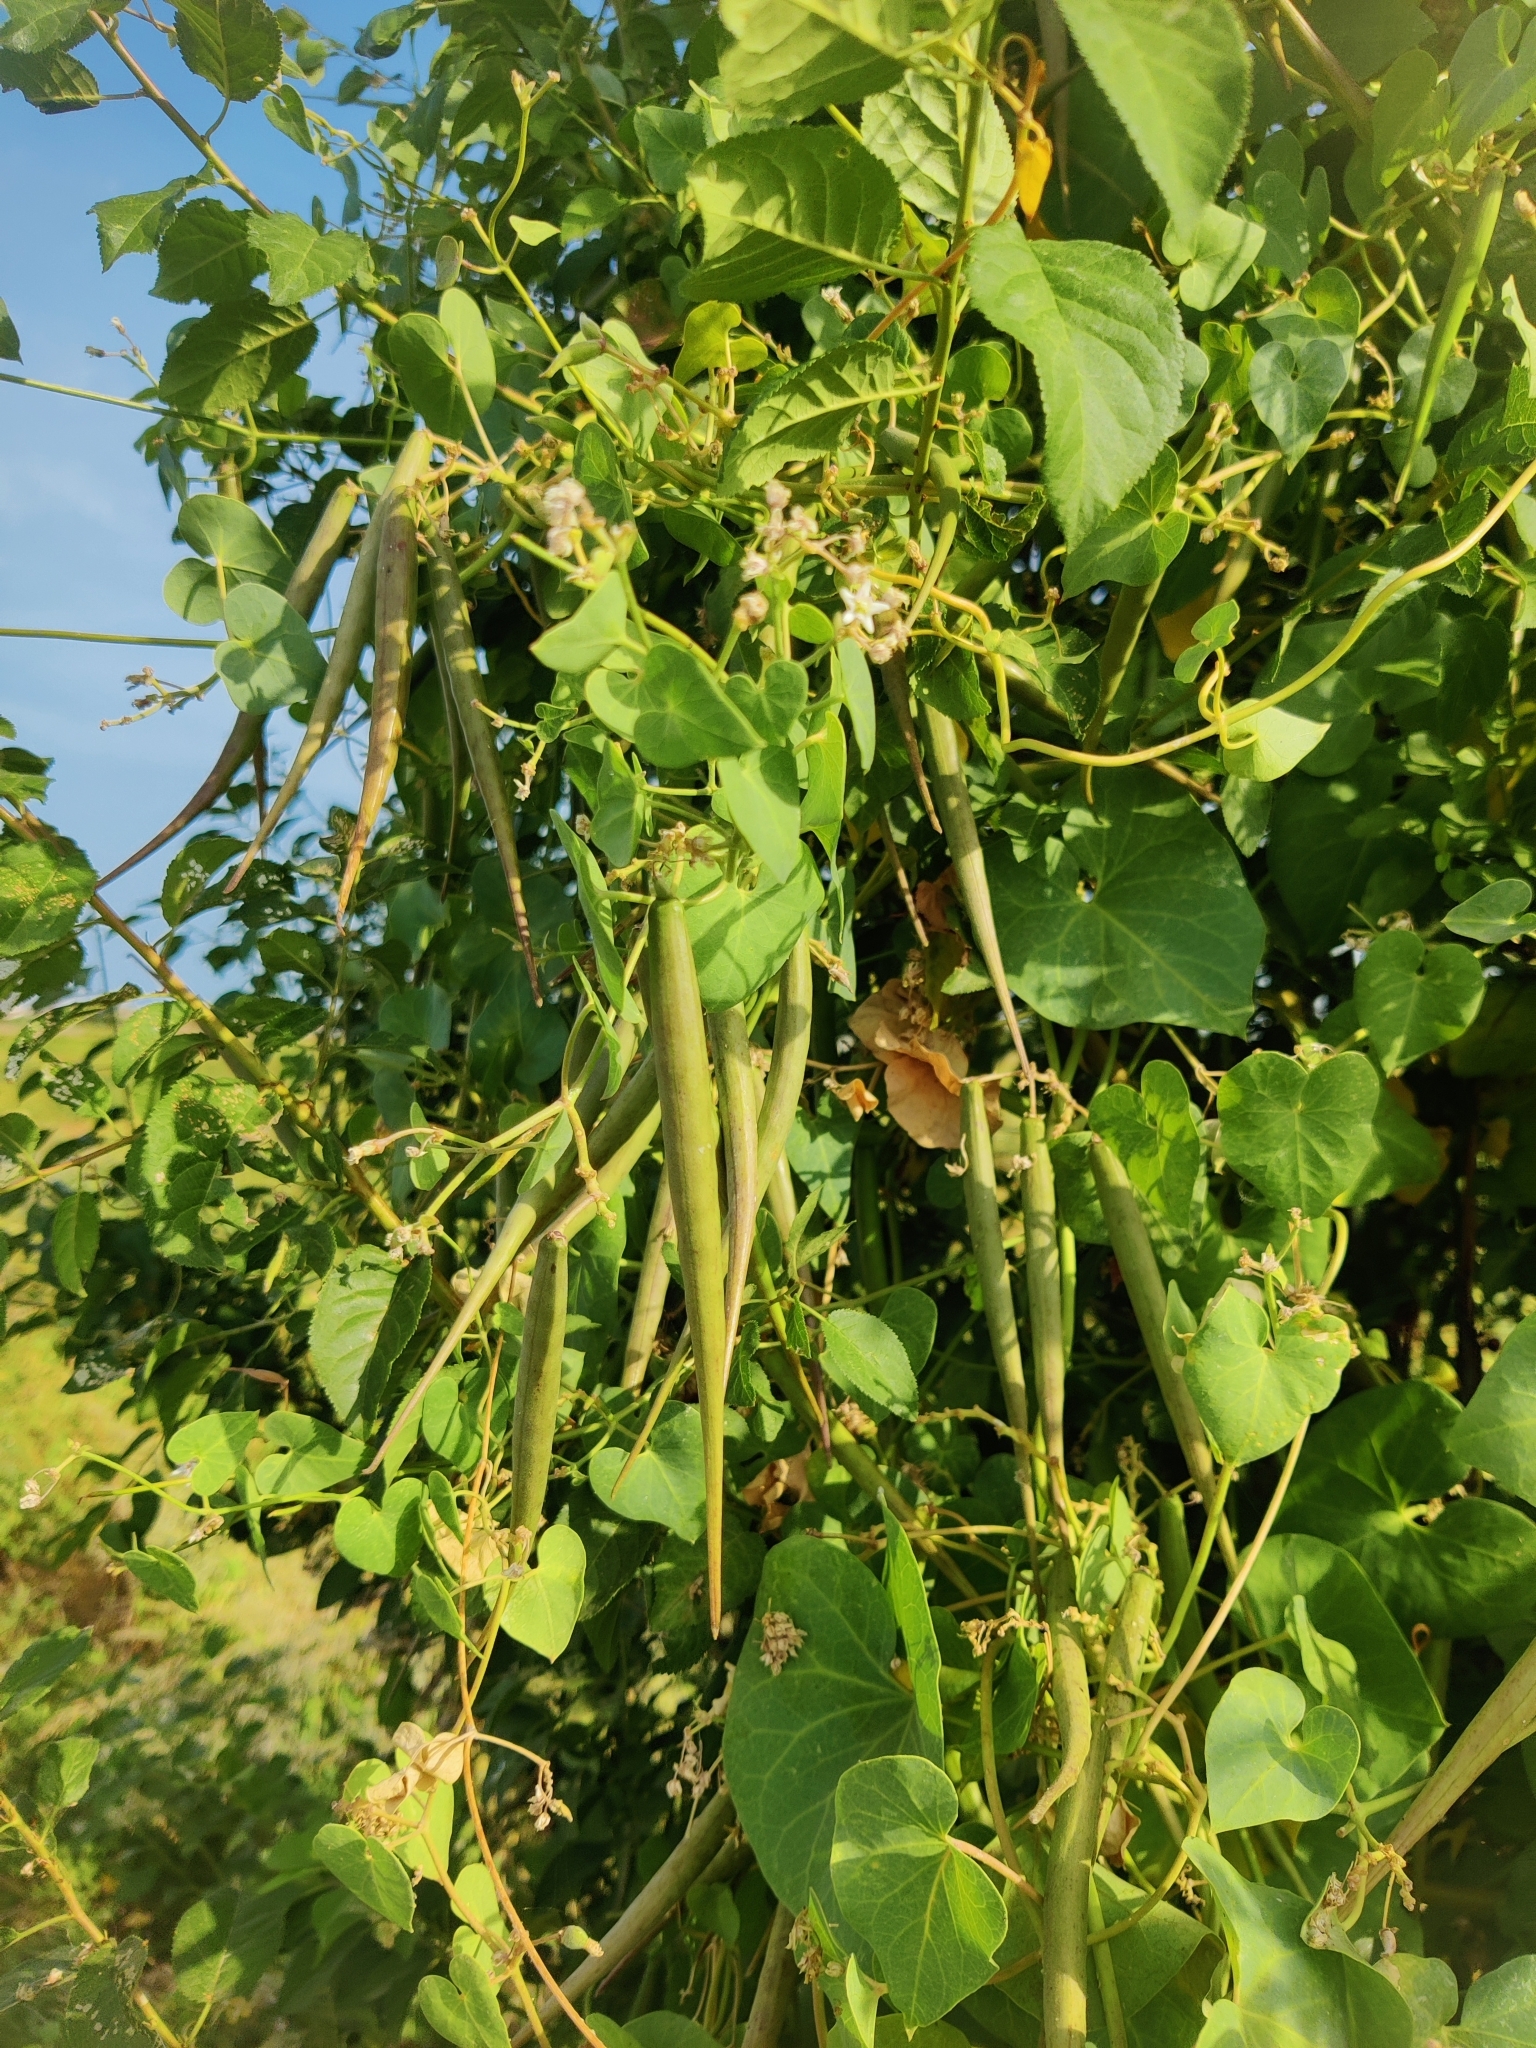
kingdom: Plantae
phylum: Tracheophyta
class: Magnoliopsida
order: Gentianales
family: Apocynaceae
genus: Cynanchum
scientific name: Cynanchum acutum
